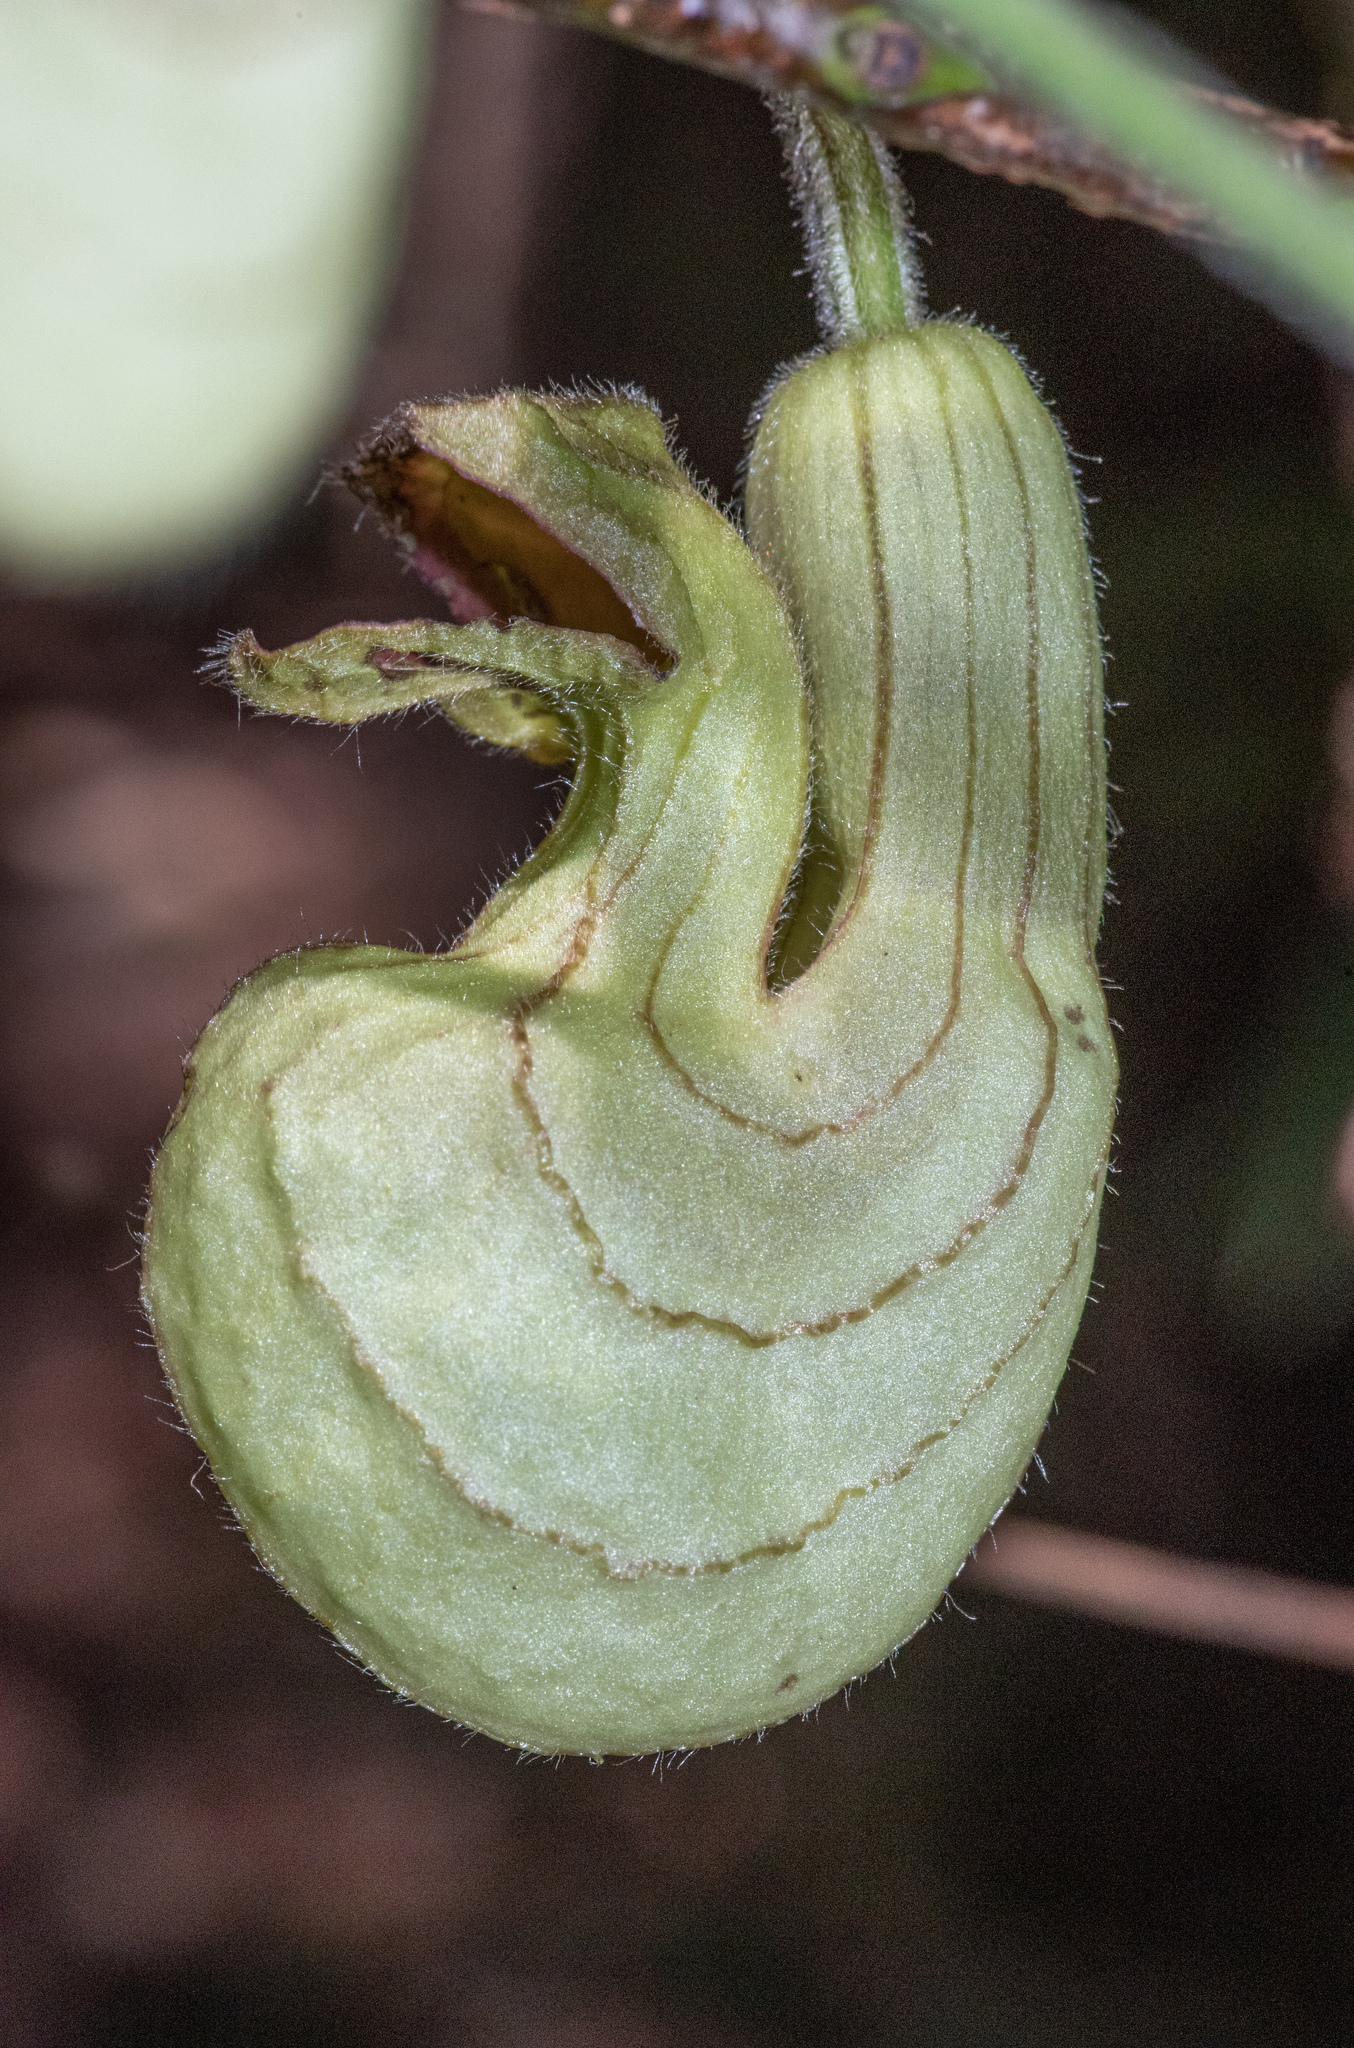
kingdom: Plantae
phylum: Tracheophyta
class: Magnoliopsida
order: Piperales
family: Aristolochiaceae
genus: Isotrema
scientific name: Isotrema californicum
